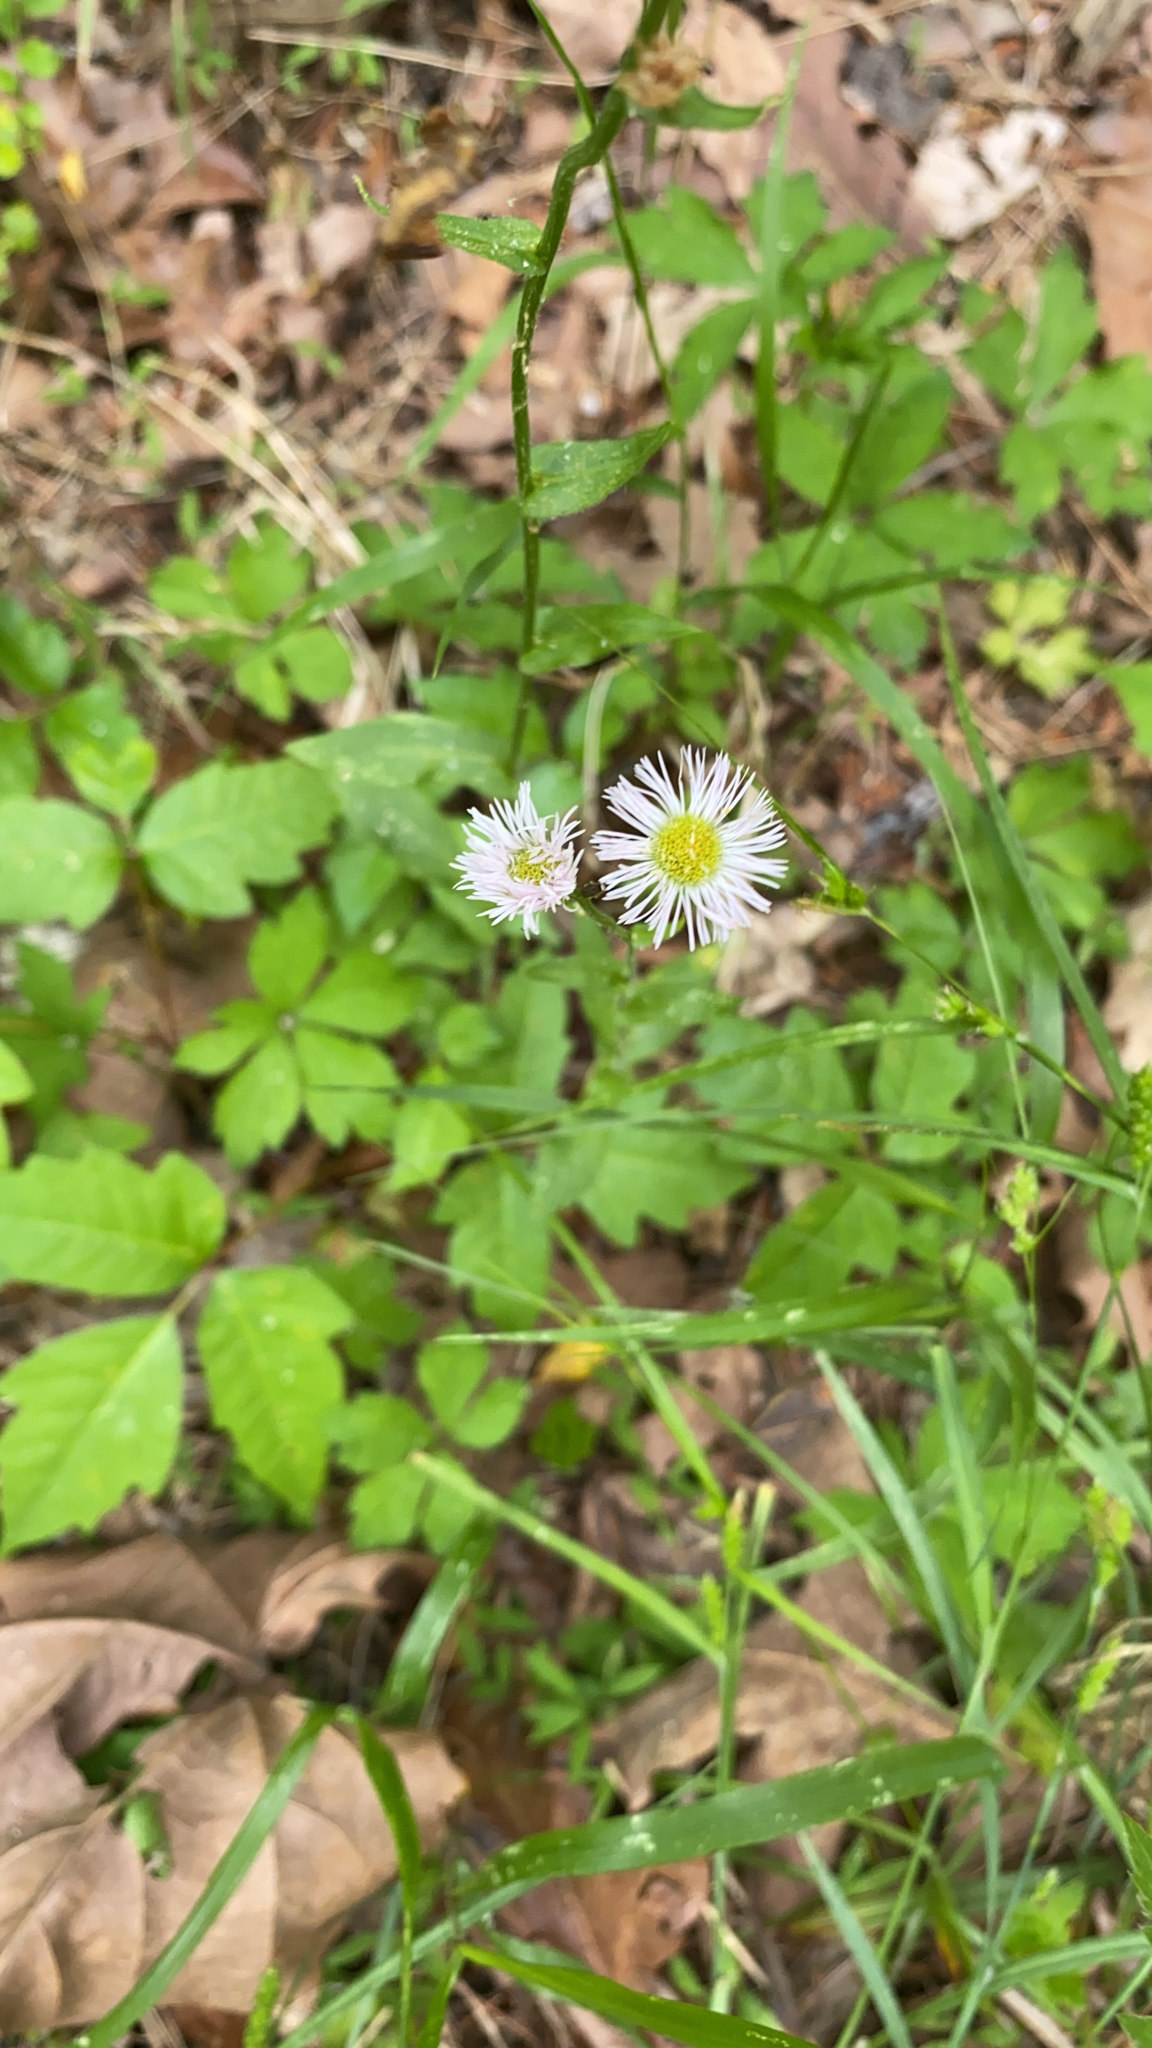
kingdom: Plantae
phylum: Tracheophyta
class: Magnoliopsida
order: Asterales
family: Asteraceae
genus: Erigeron
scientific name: Erigeron philadelphicus
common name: Robin's-plantain
